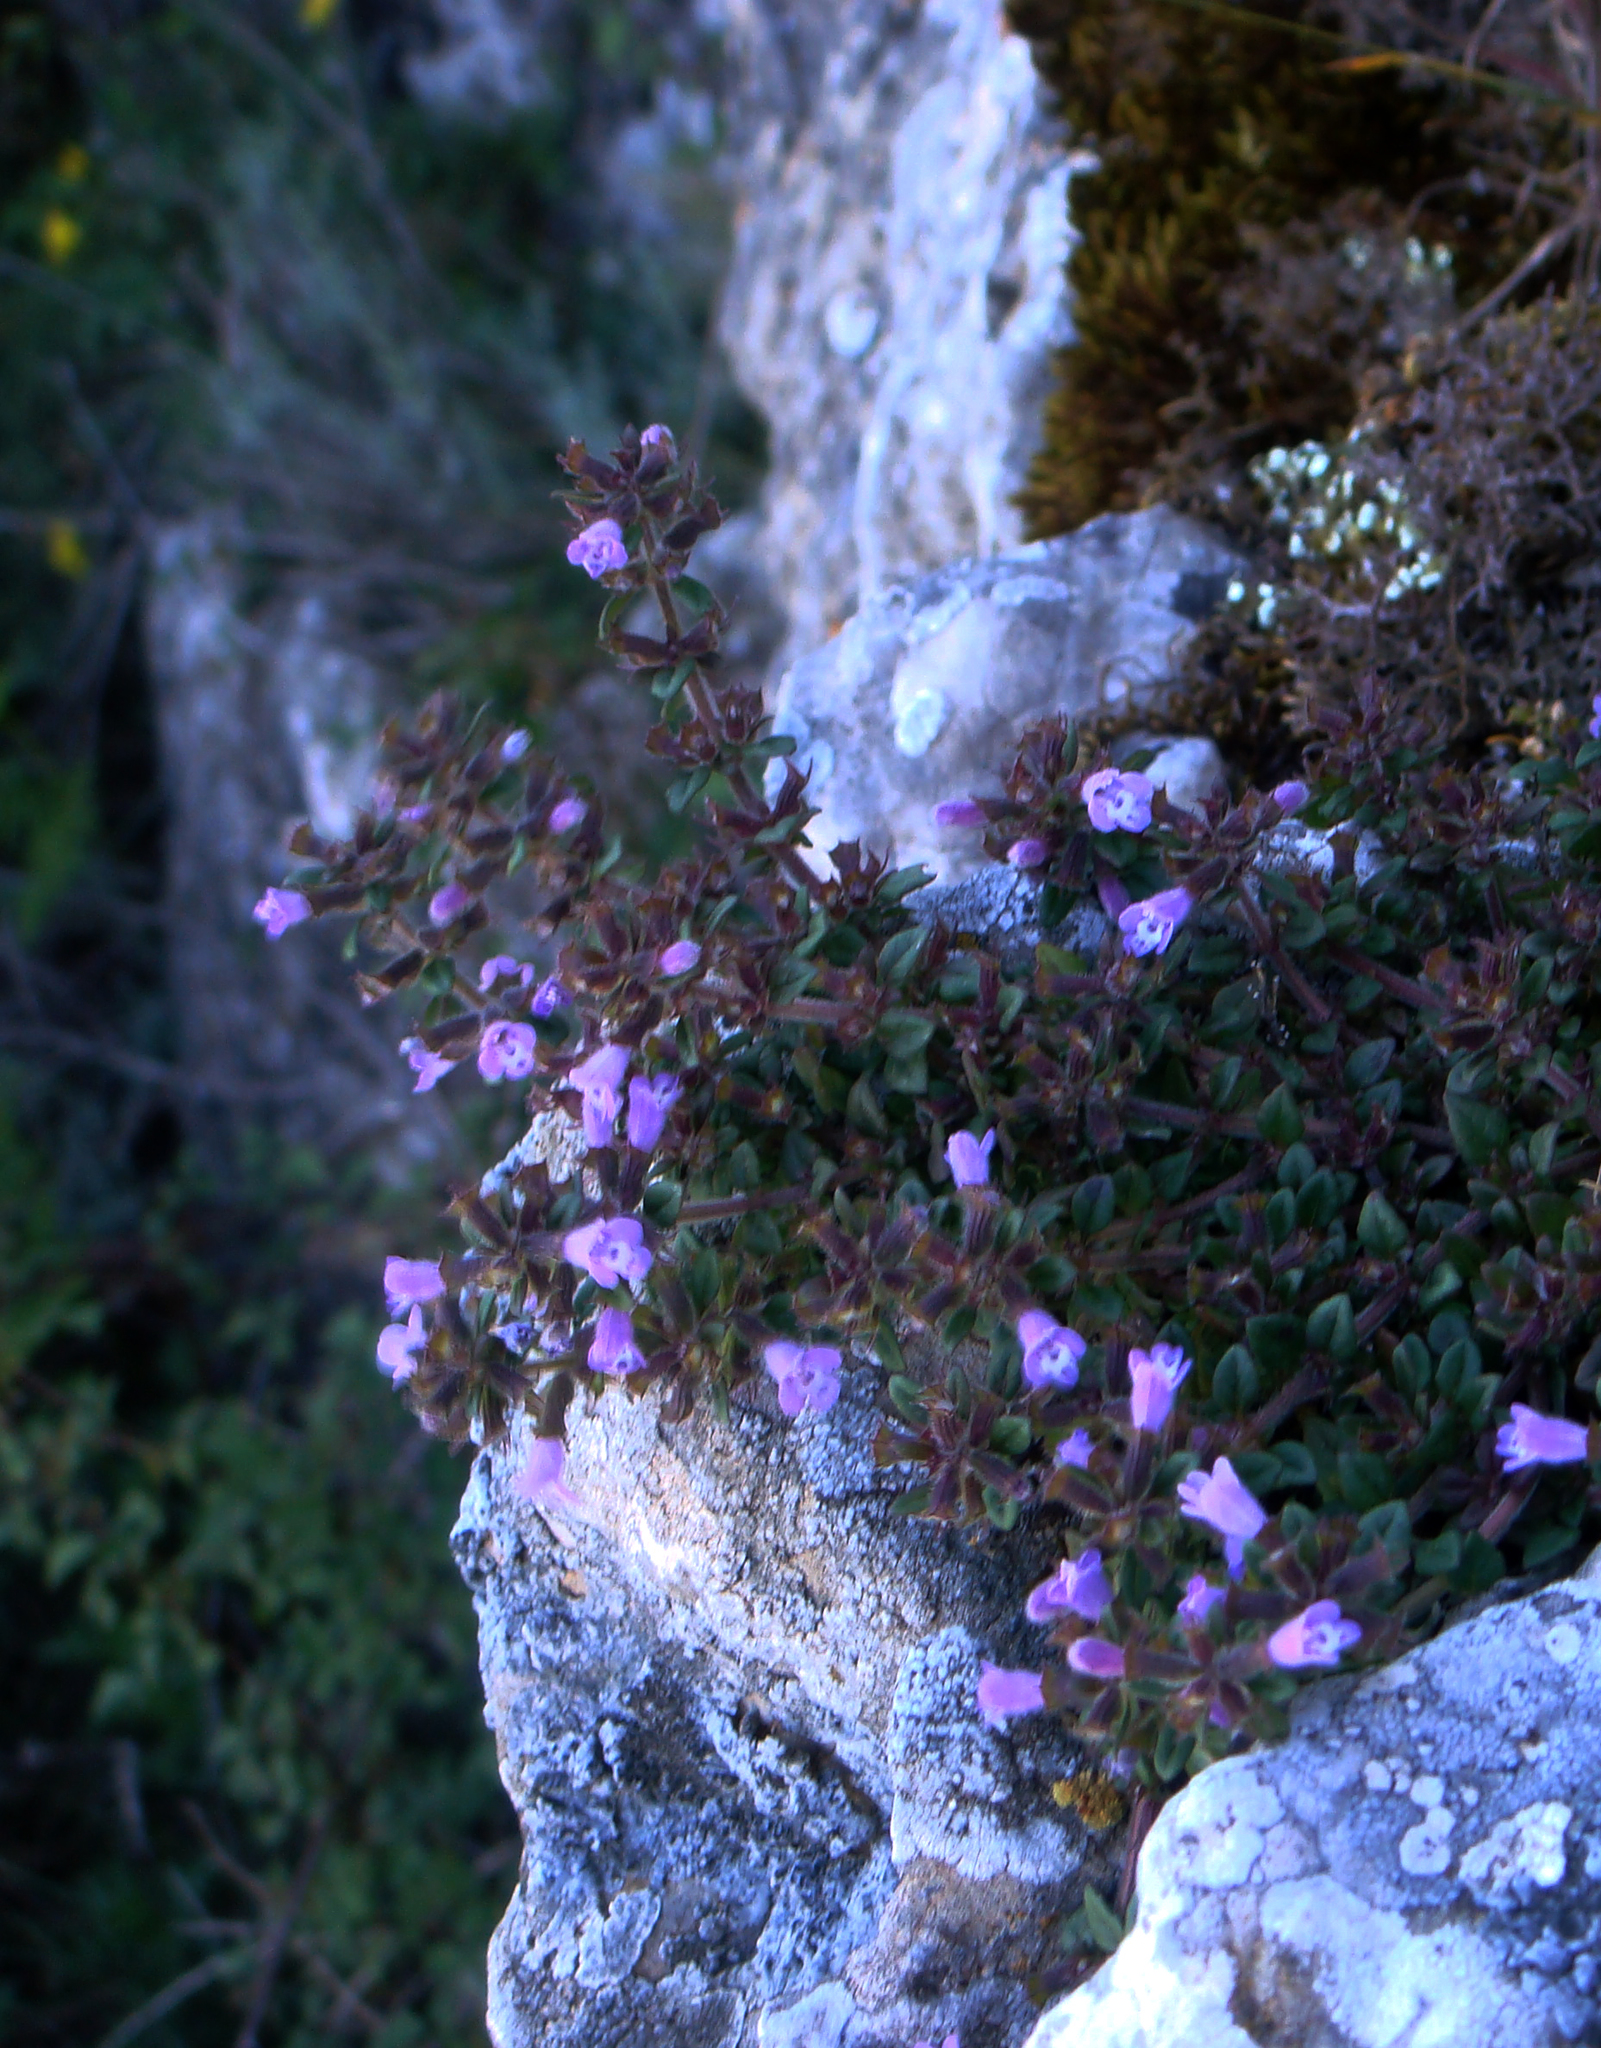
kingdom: Plantae
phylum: Tracheophyta
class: Magnoliopsida
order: Lamiales
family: Lamiaceae
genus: Clinopodium
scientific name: Clinopodium alpinum
